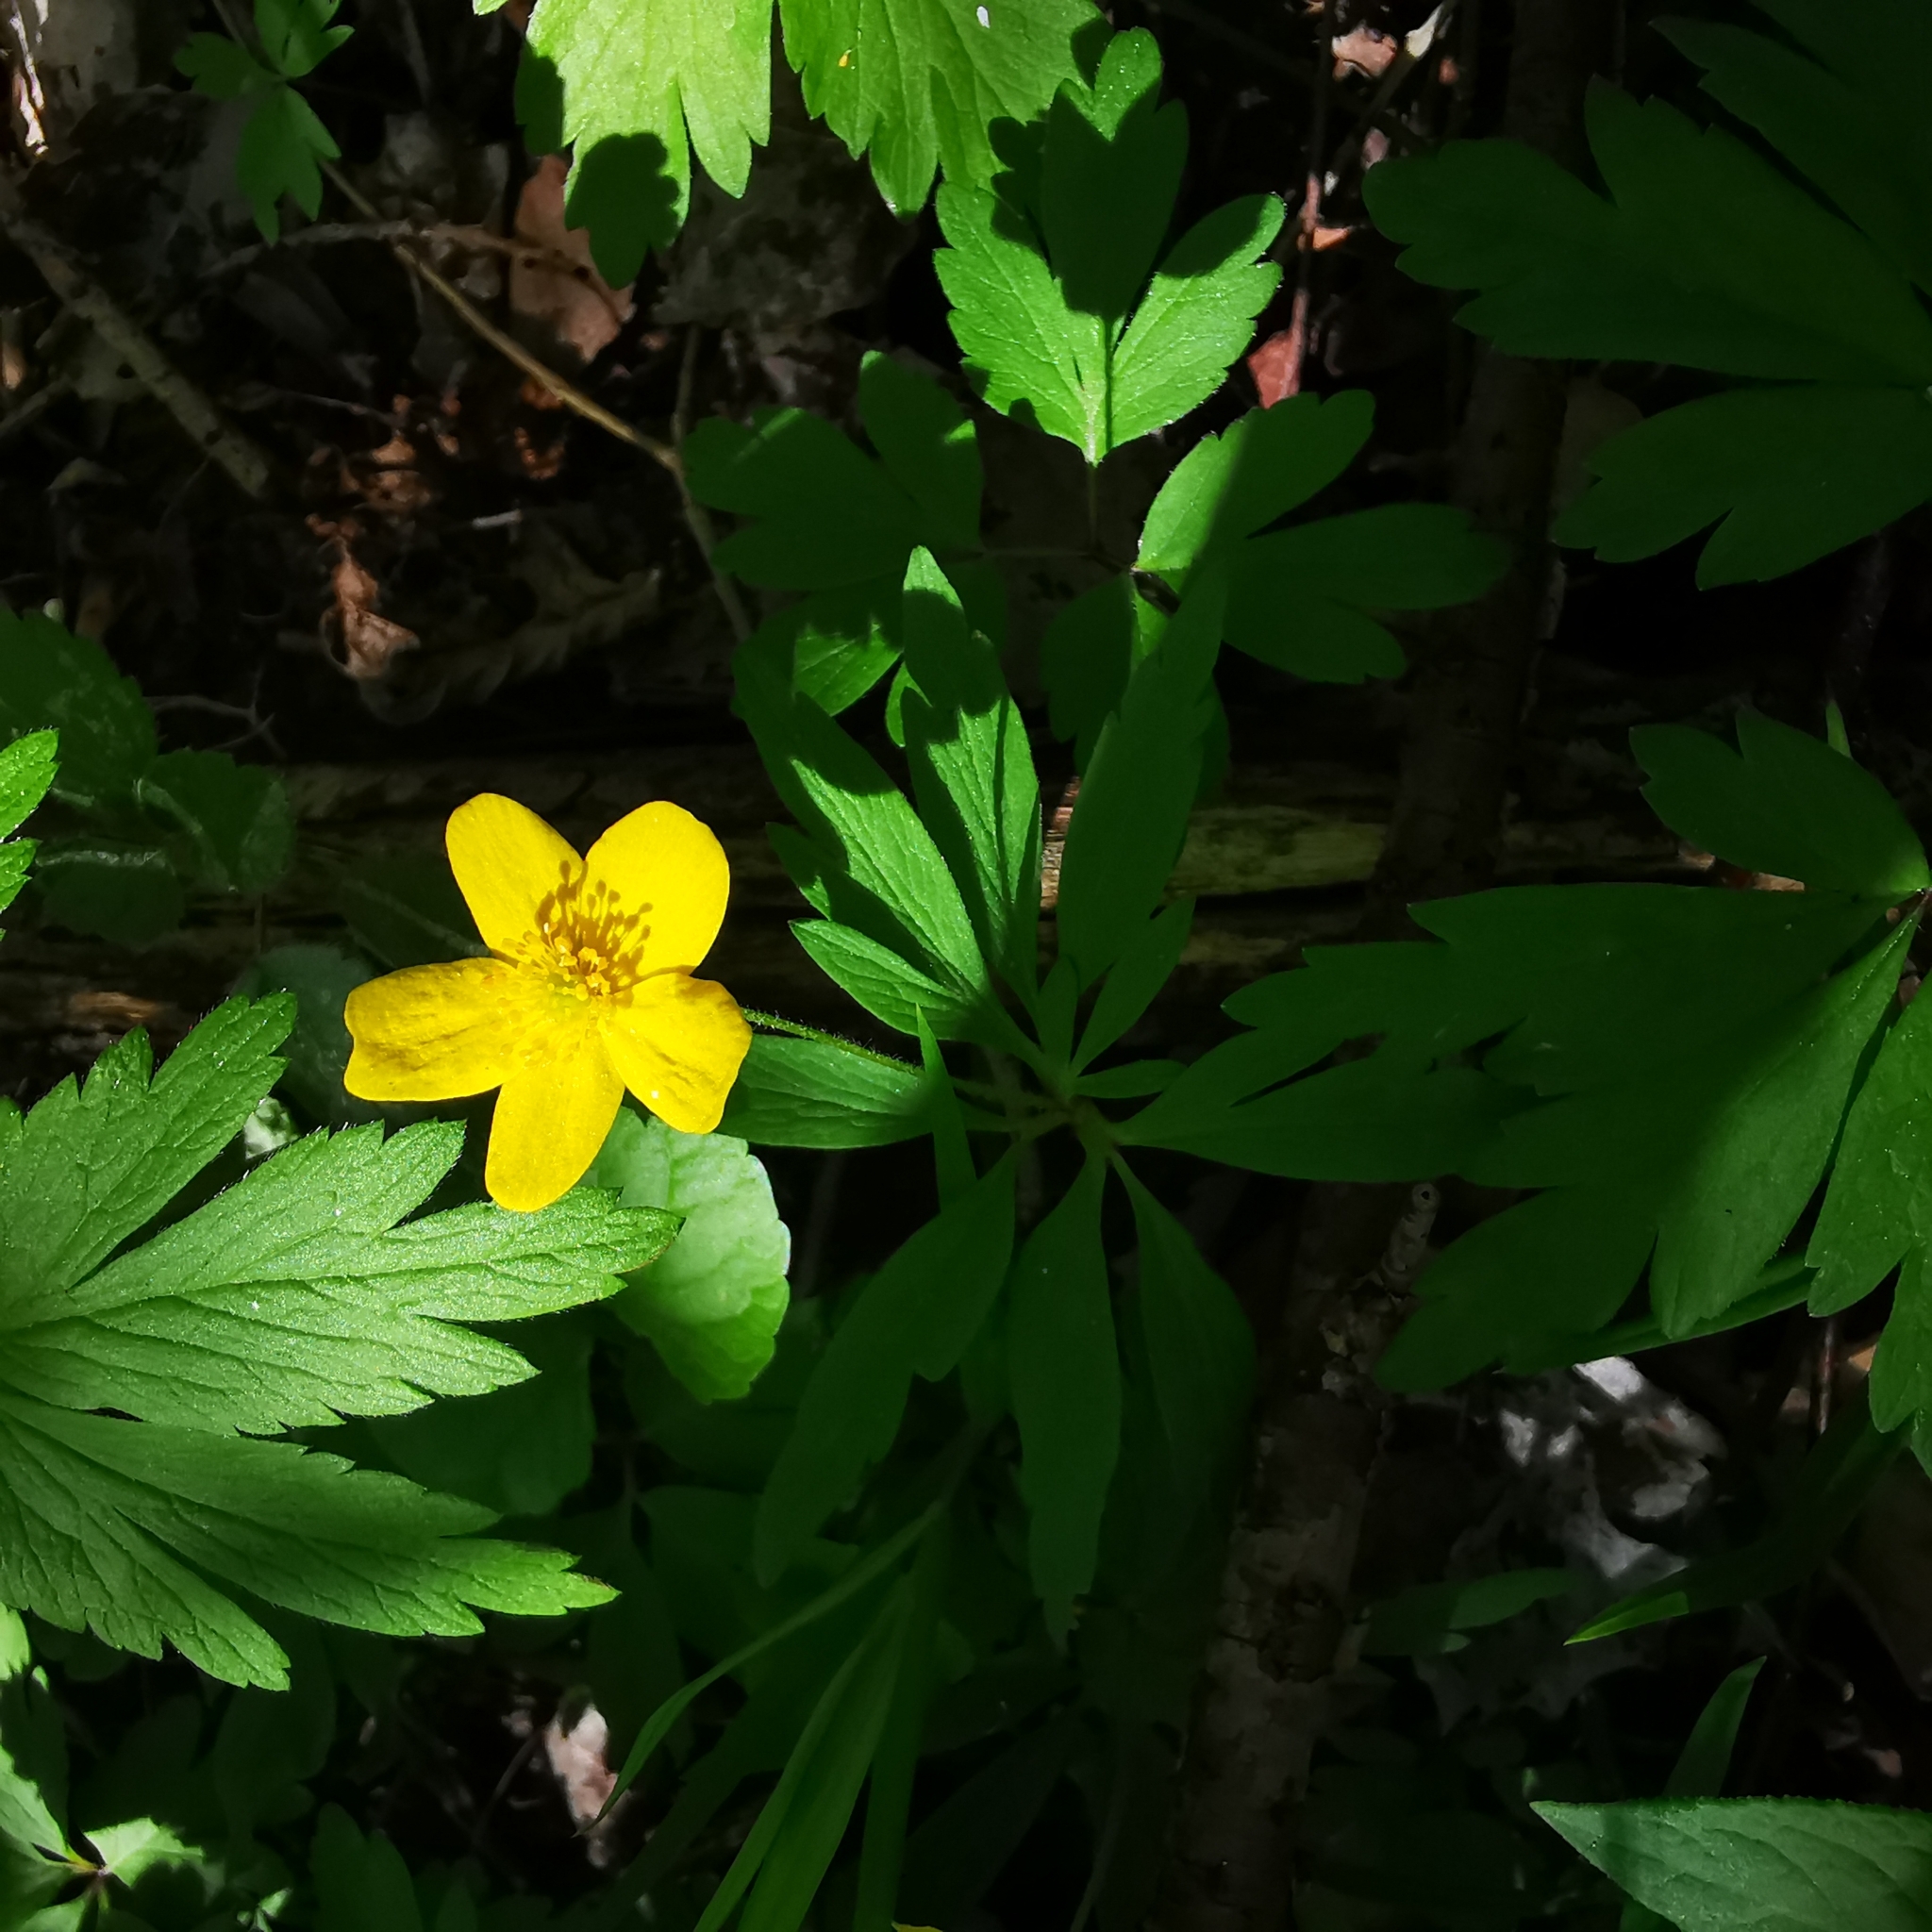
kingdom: Plantae
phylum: Tracheophyta
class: Magnoliopsida
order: Ranunculales
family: Ranunculaceae
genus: Anemone
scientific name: Anemone ranunculoides
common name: Yellow anemone
